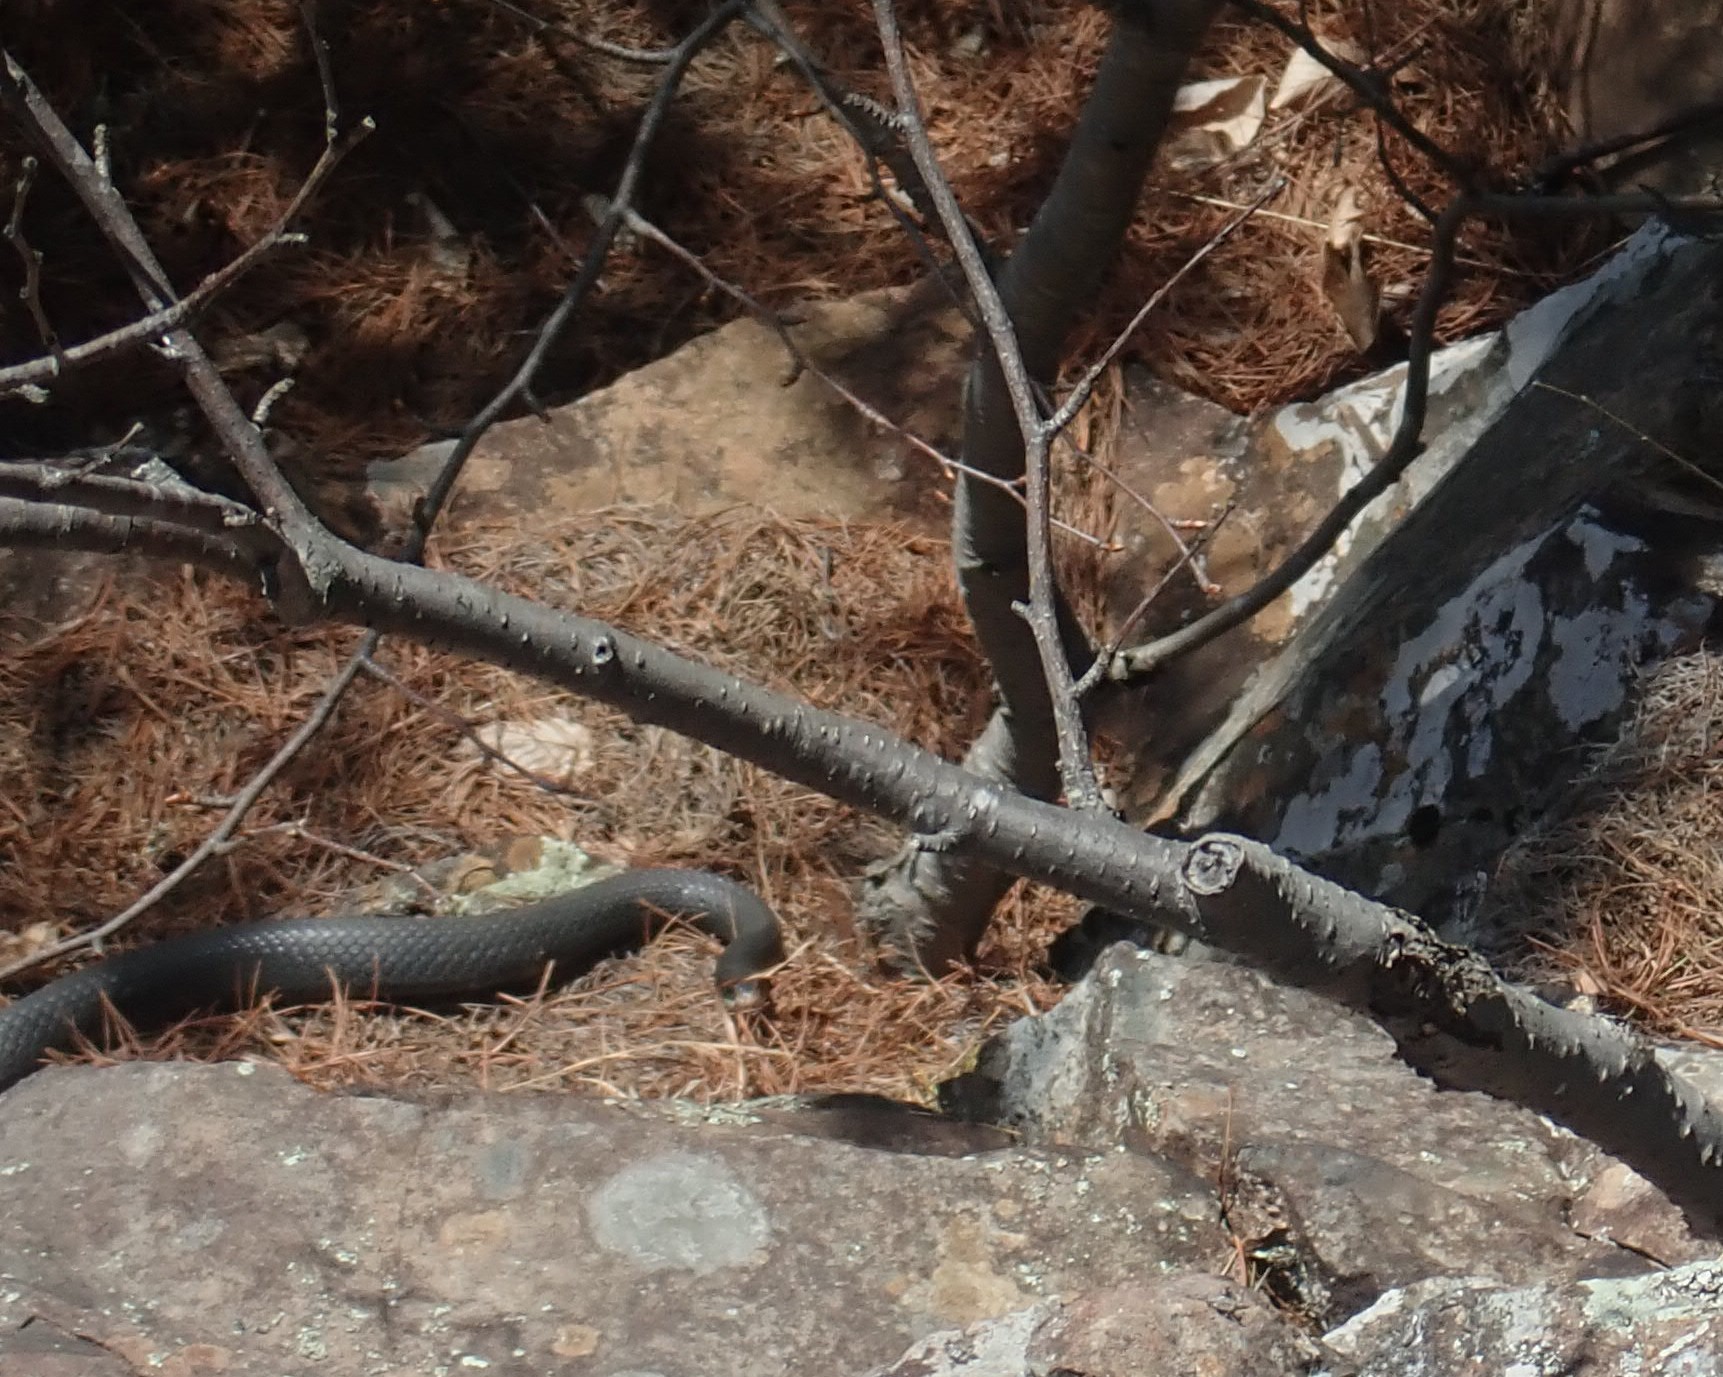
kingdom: Animalia
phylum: Chordata
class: Squamata
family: Colubridae
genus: Coluber
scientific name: Coluber constrictor
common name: Eastern racer
